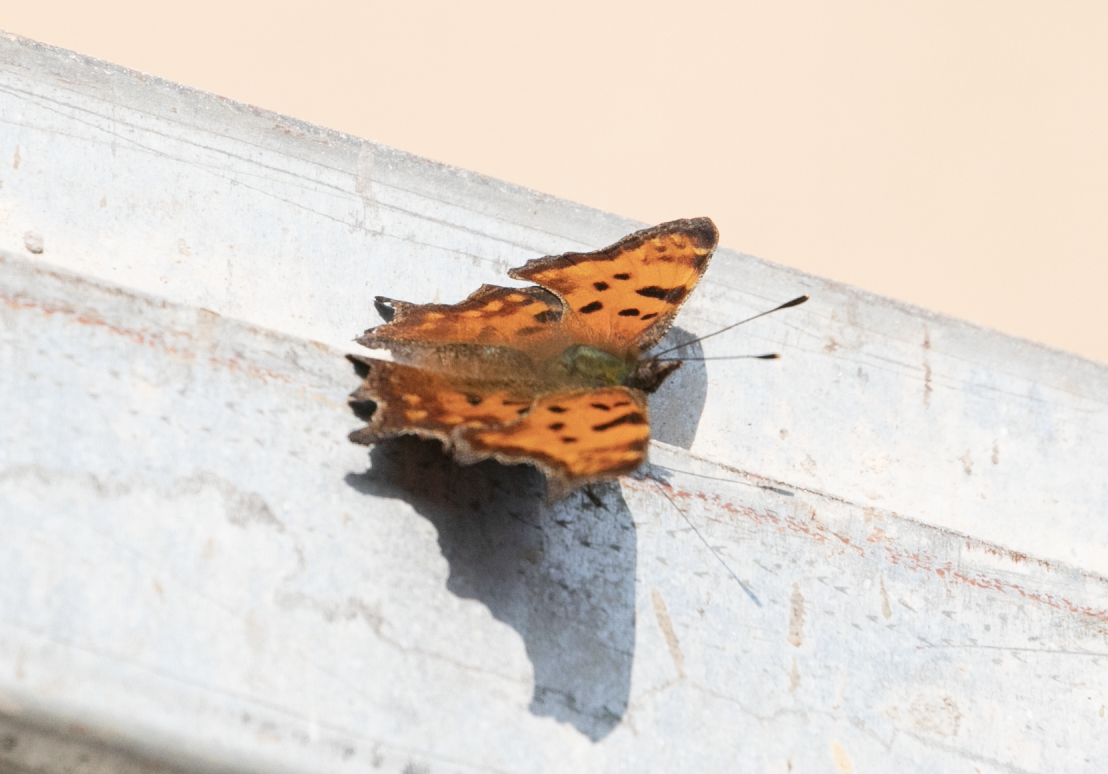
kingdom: Animalia
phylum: Arthropoda
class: Insecta
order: Lepidoptera
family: Nymphalidae
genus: Polygonia
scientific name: Polygonia c-album
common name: Comma
